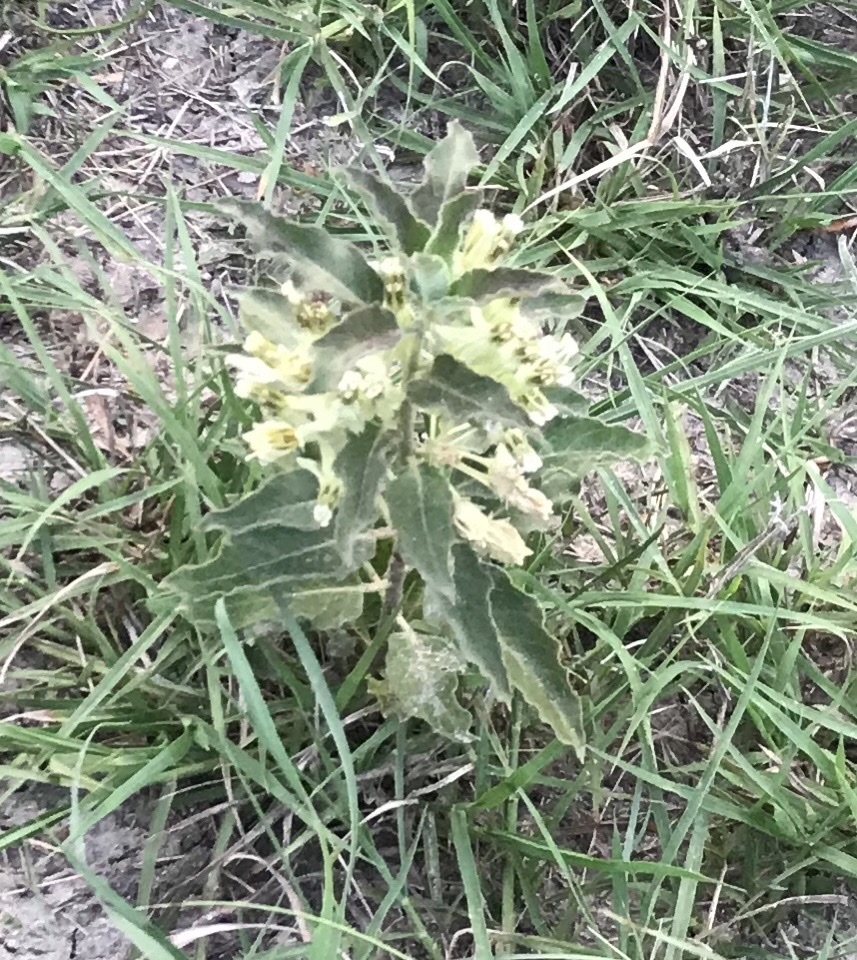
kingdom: Plantae
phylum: Tracheophyta
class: Magnoliopsida
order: Gentianales
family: Apocynaceae
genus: Asclepias
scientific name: Asclepias oenotheroides
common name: Zizotes milkweed
